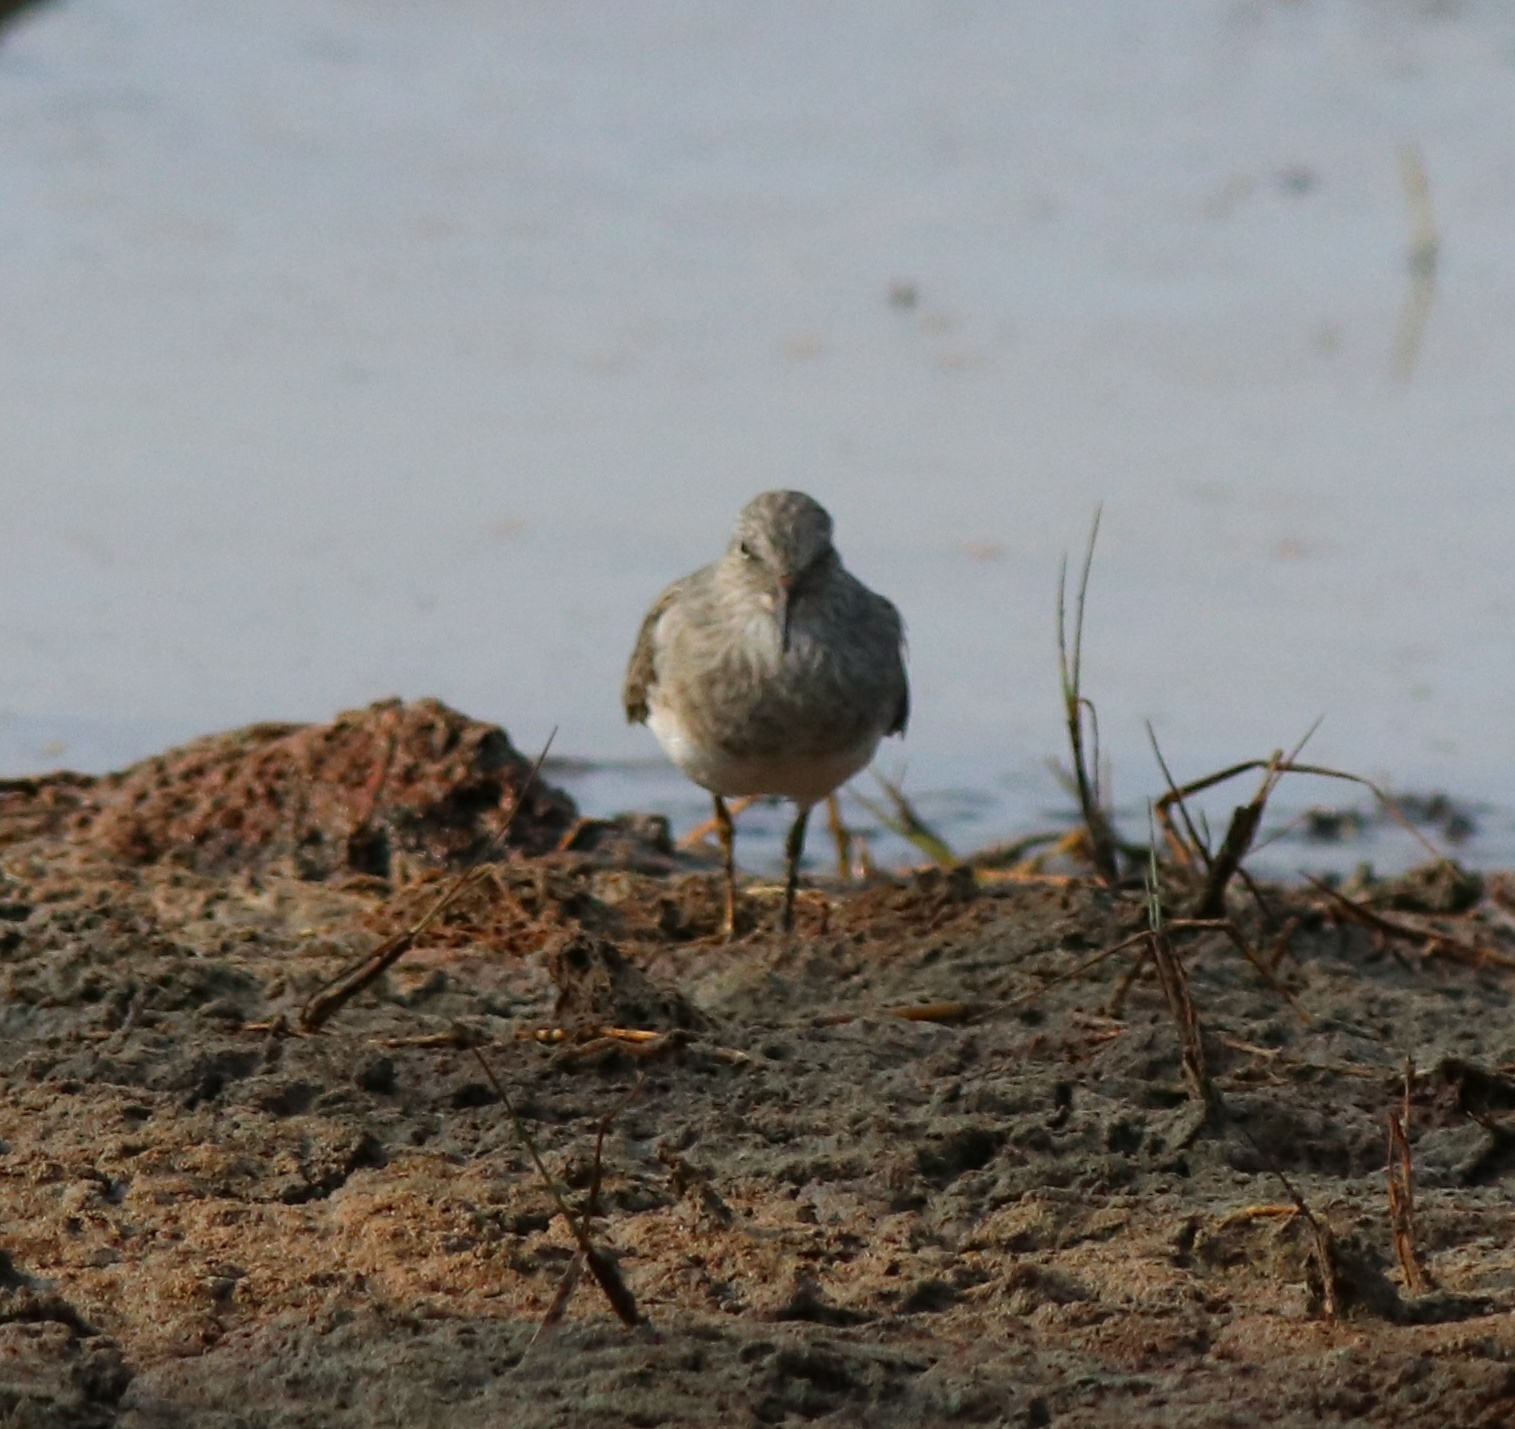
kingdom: Animalia
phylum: Chordata
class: Aves
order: Charadriiformes
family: Scolopacidae
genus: Calidris
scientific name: Calidris temminckii
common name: Temminck's stint
